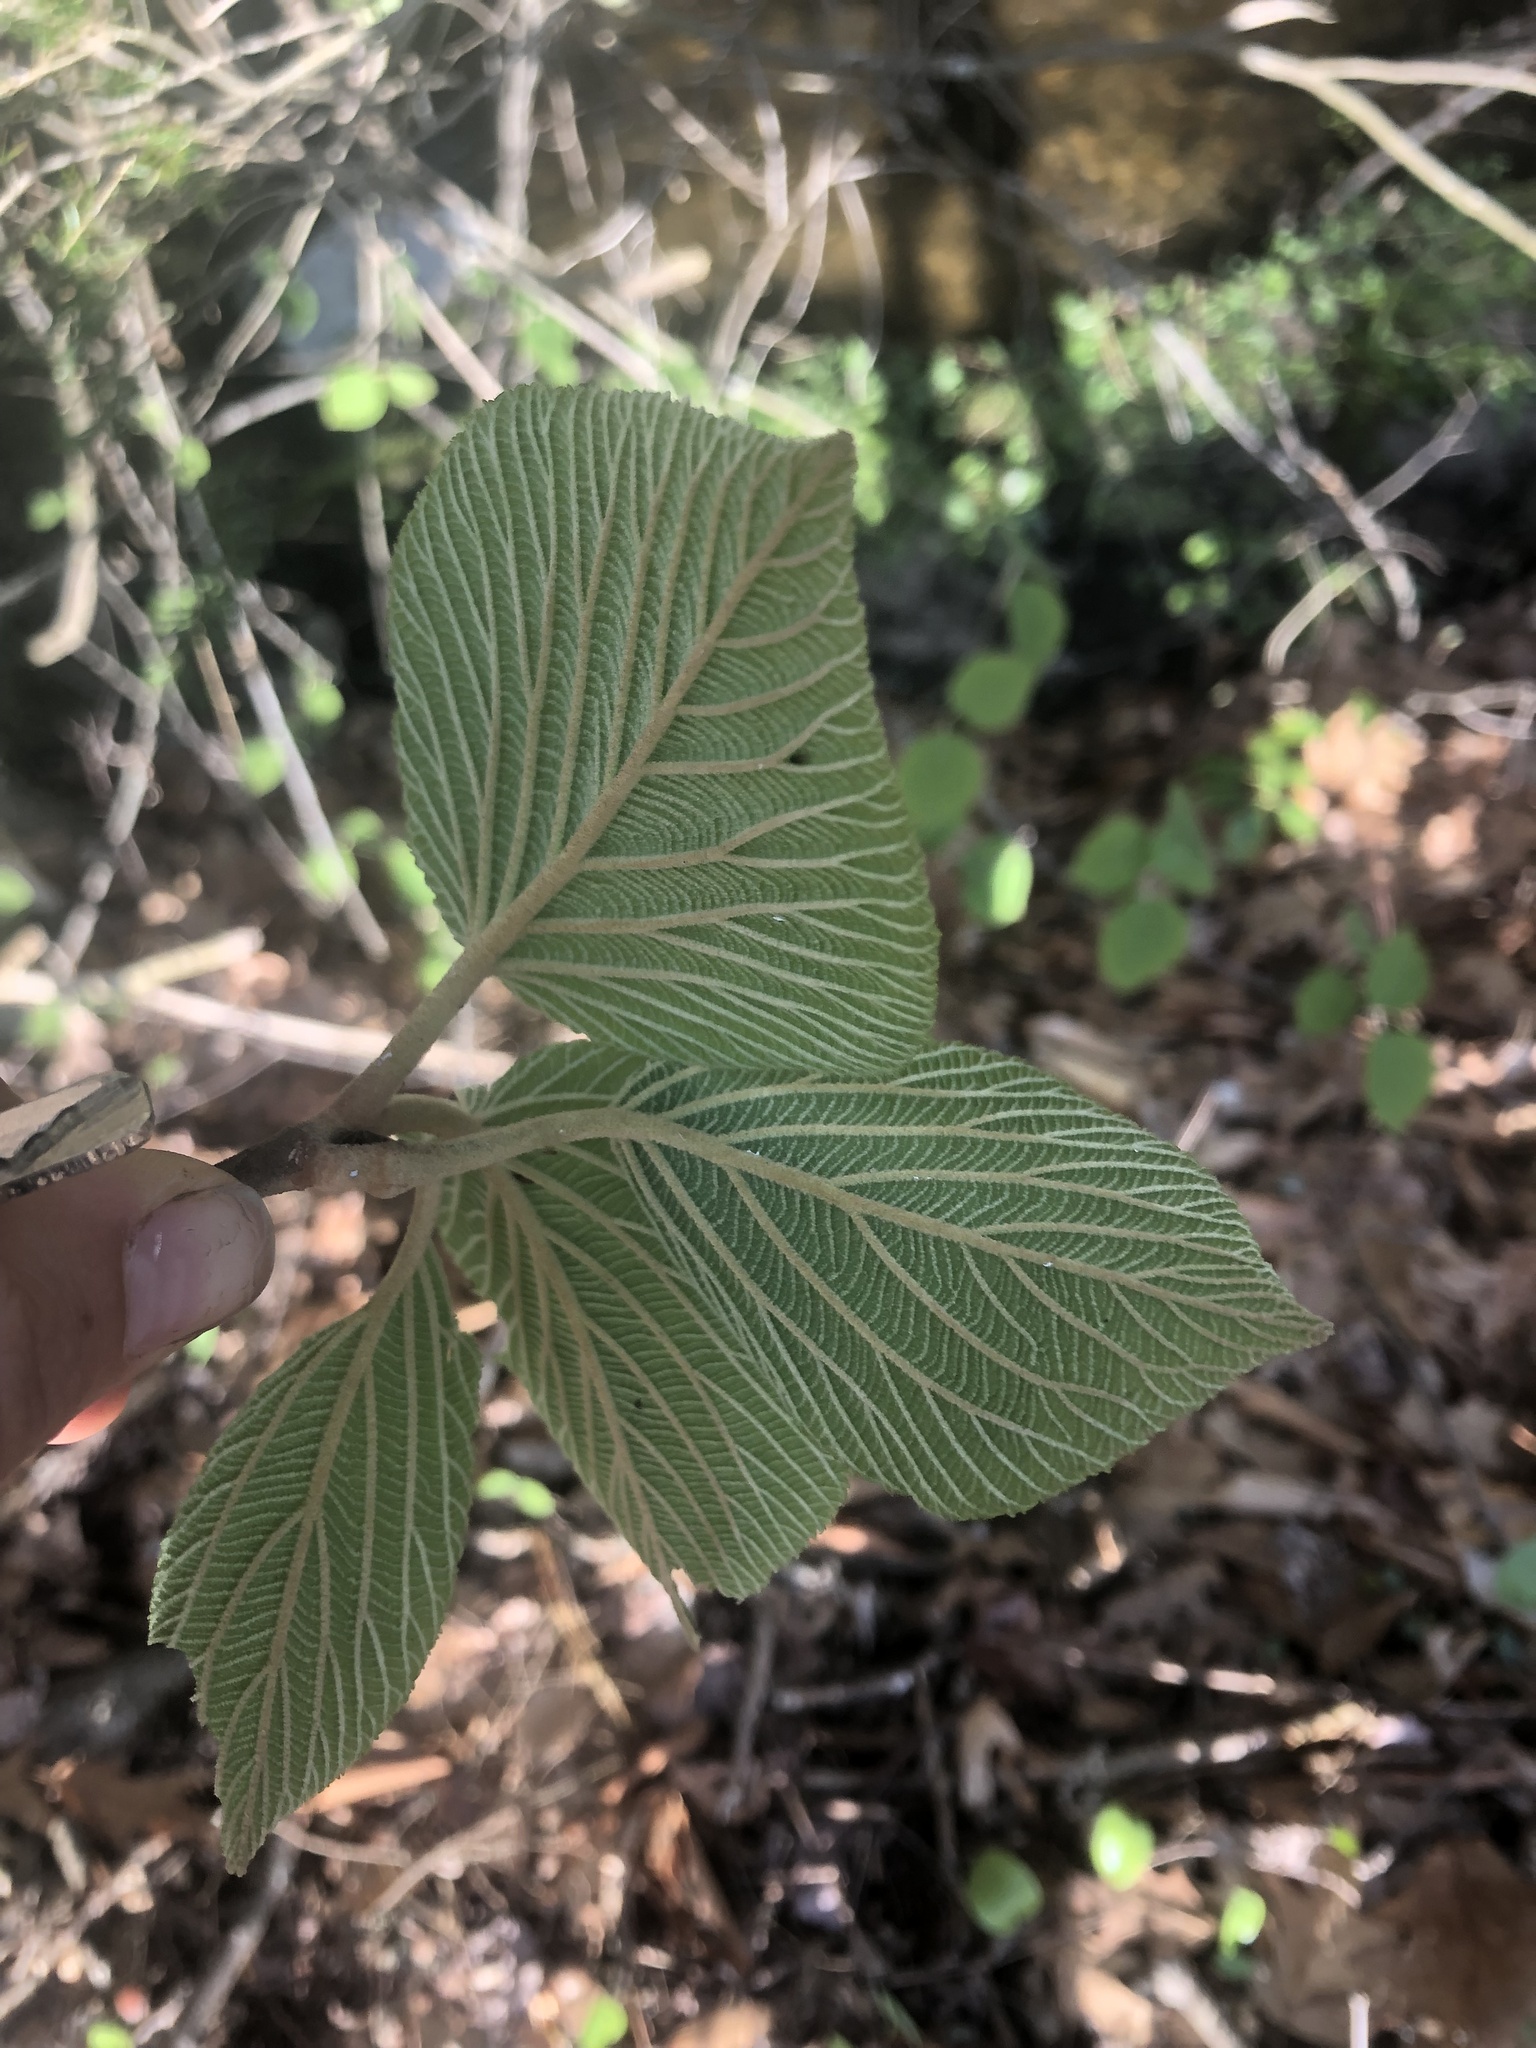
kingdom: Plantae
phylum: Tracheophyta
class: Magnoliopsida
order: Dipsacales
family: Viburnaceae
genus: Viburnum
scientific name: Viburnum lantanoides
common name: Hobblebush
